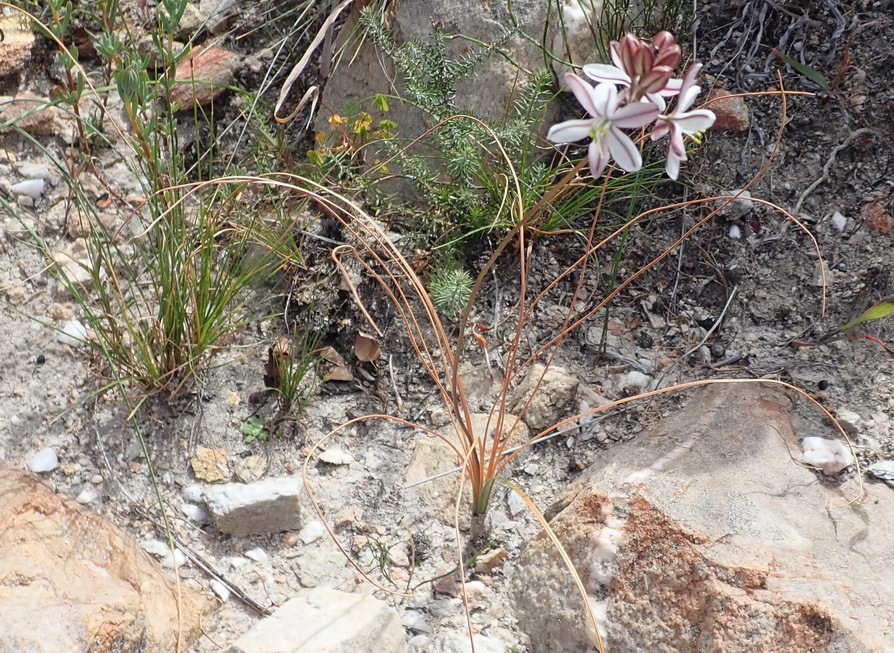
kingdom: Plantae
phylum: Tracheophyta
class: Liliopsida
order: Asparagales
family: Asparagaceae
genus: Drimia
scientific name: Drimia exuviata
